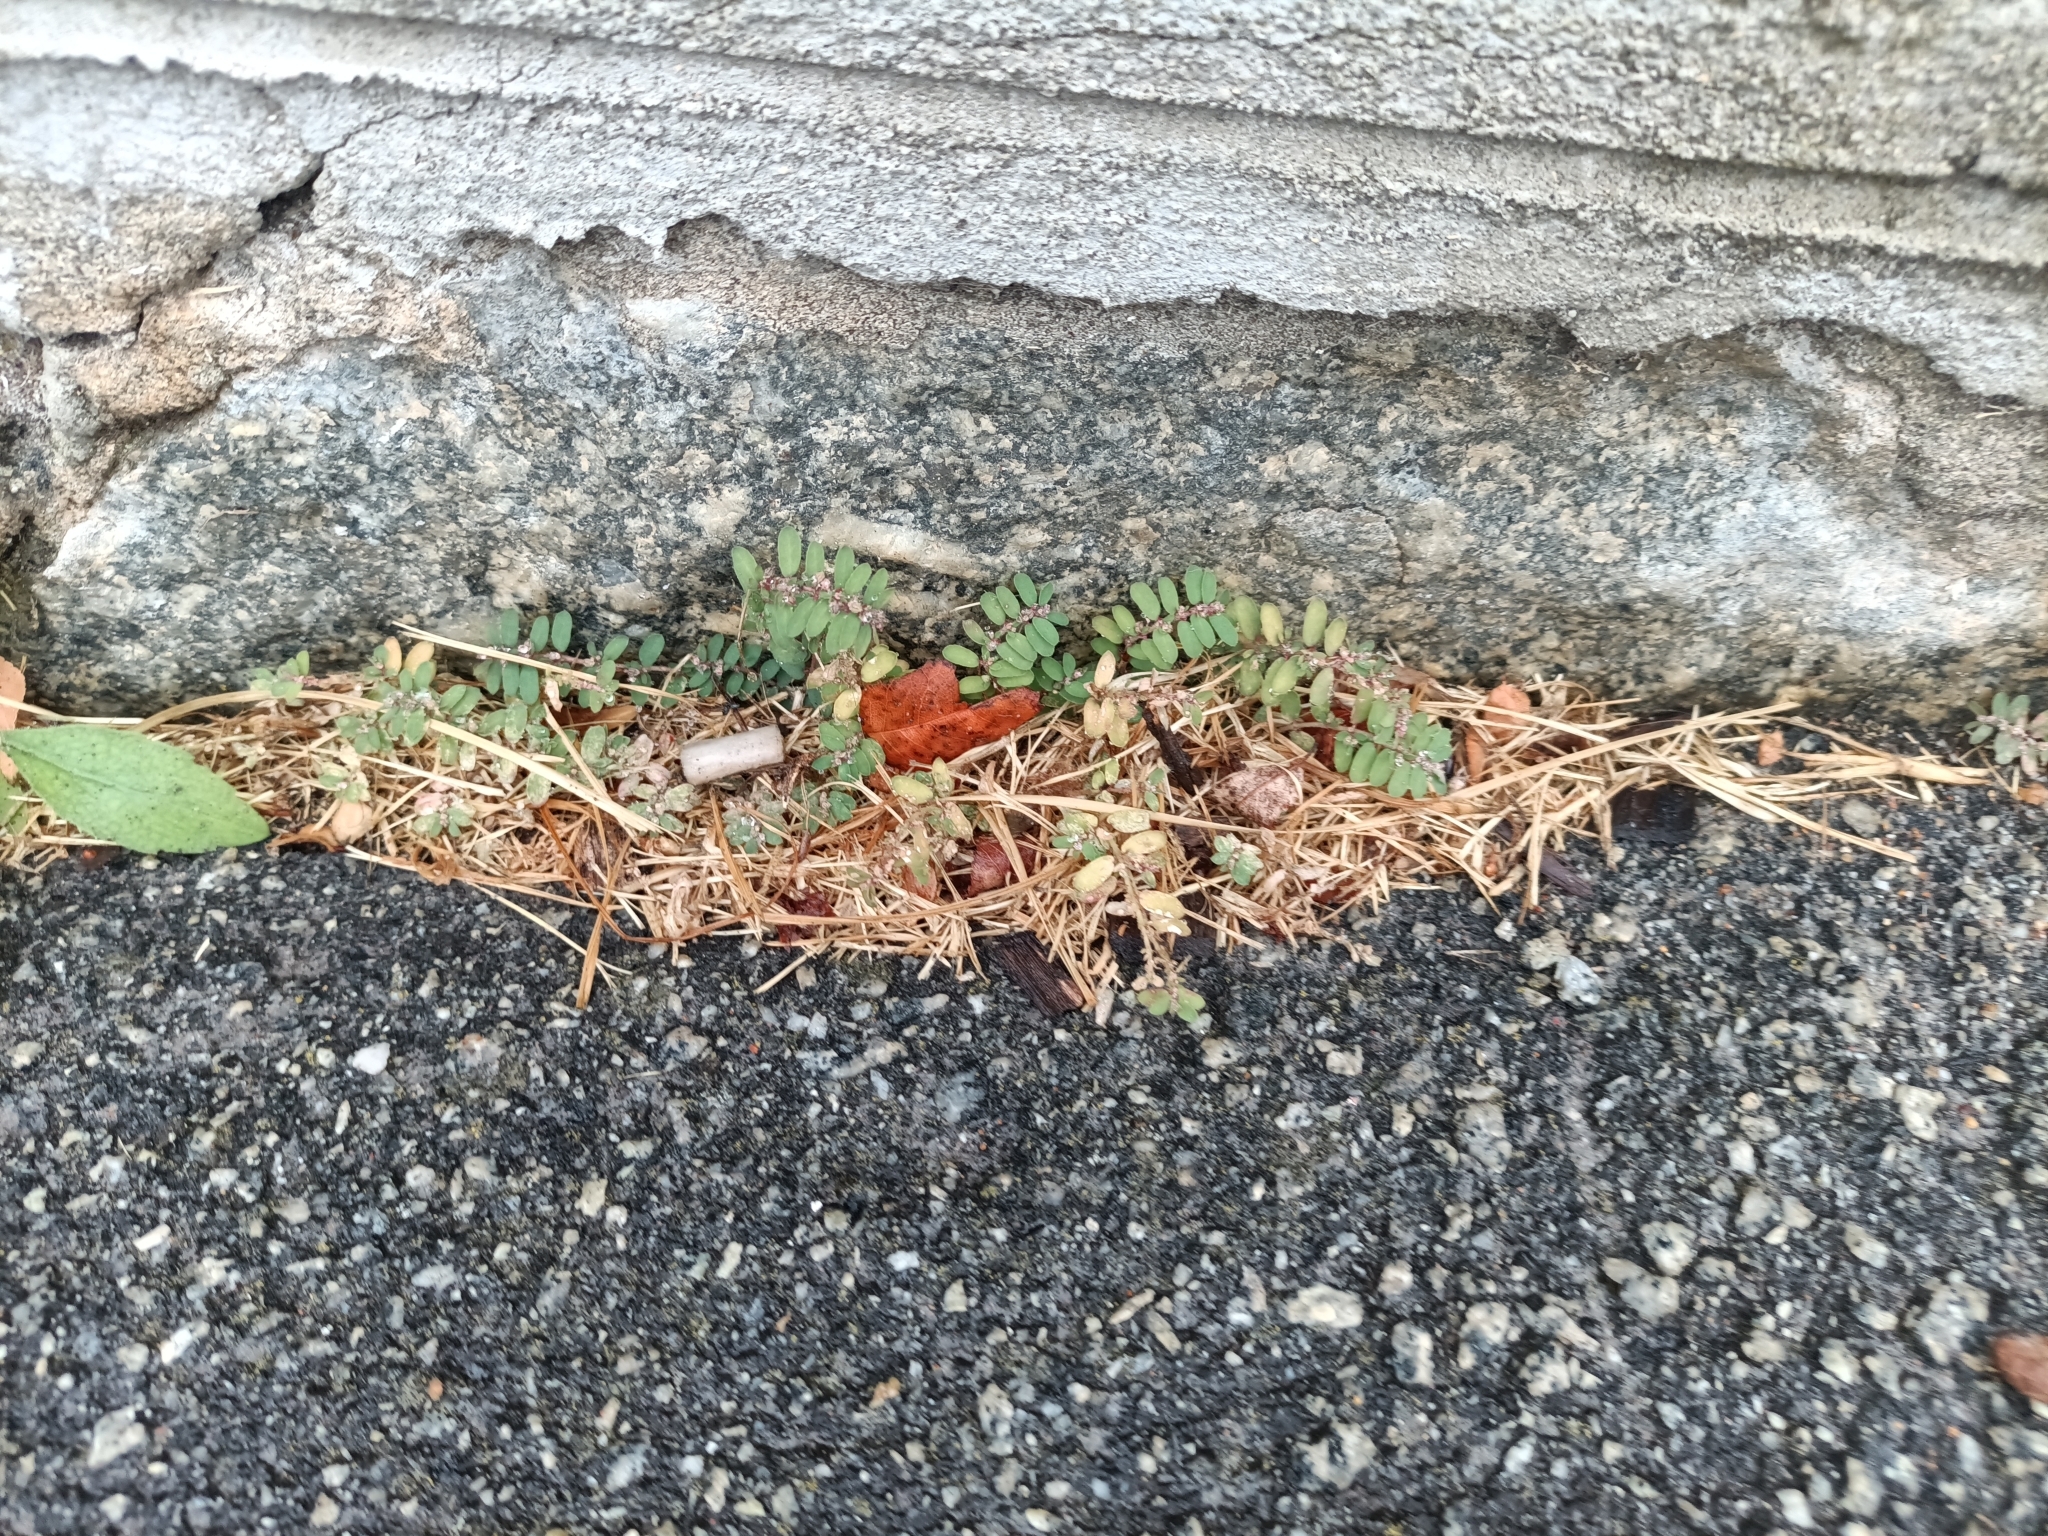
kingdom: Plantae
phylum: Tracheophyta
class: Magnoliopsida
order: Malpighiales
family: Euphorbiaceae
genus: Euphorbia
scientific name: Euphorbia maculata
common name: Spotted spurge
